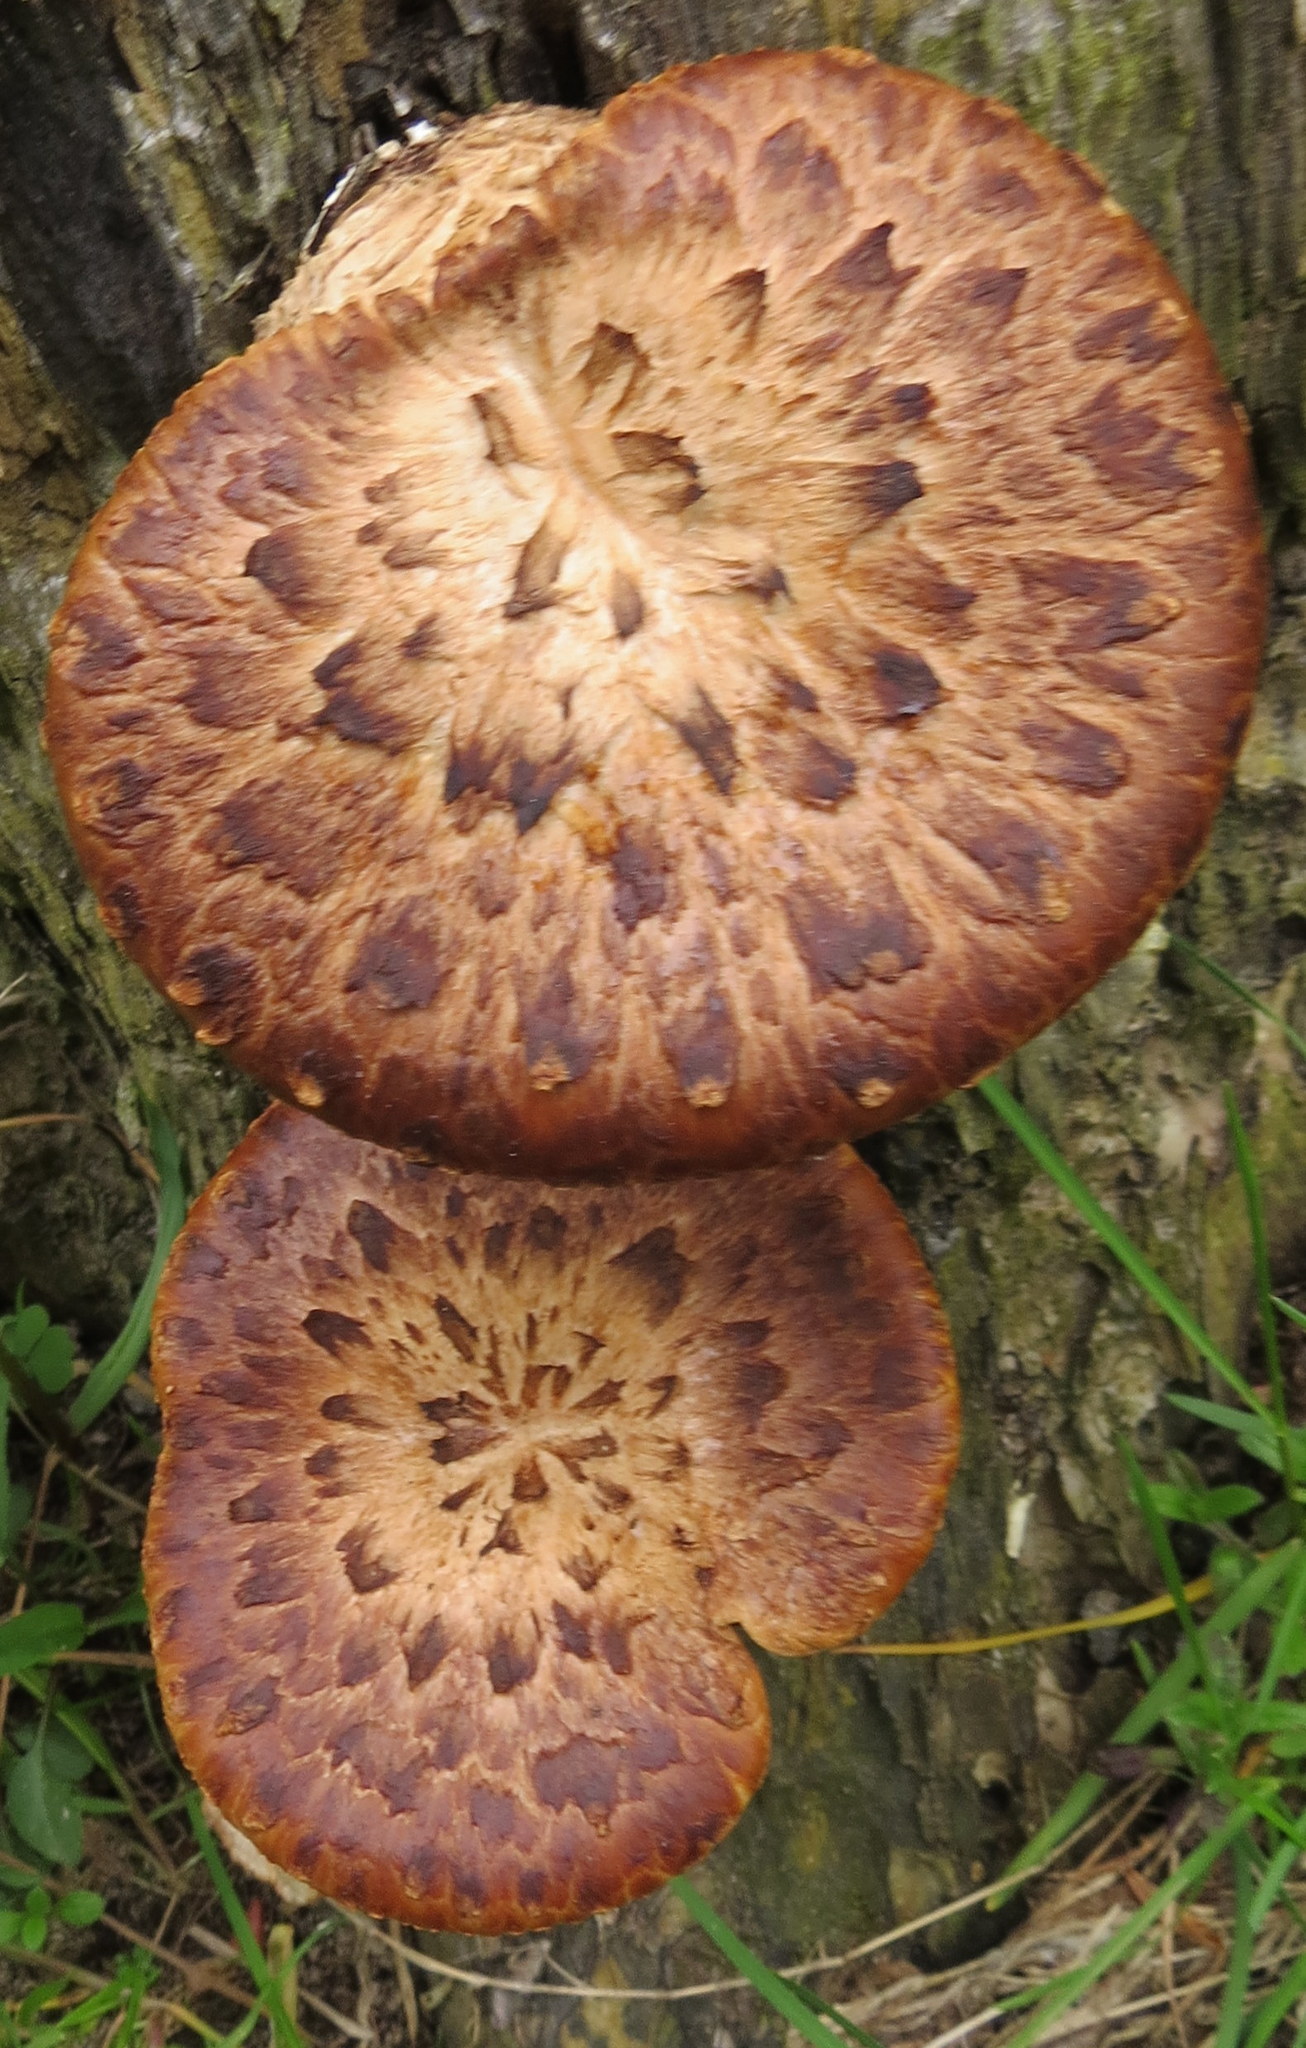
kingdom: Fungi
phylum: Basidiomycota
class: Agaricomycetes
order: Polyporales
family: Polyporaceae
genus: Cerioporus
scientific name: Cerioporus squamosus
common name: Dryad's saddle
